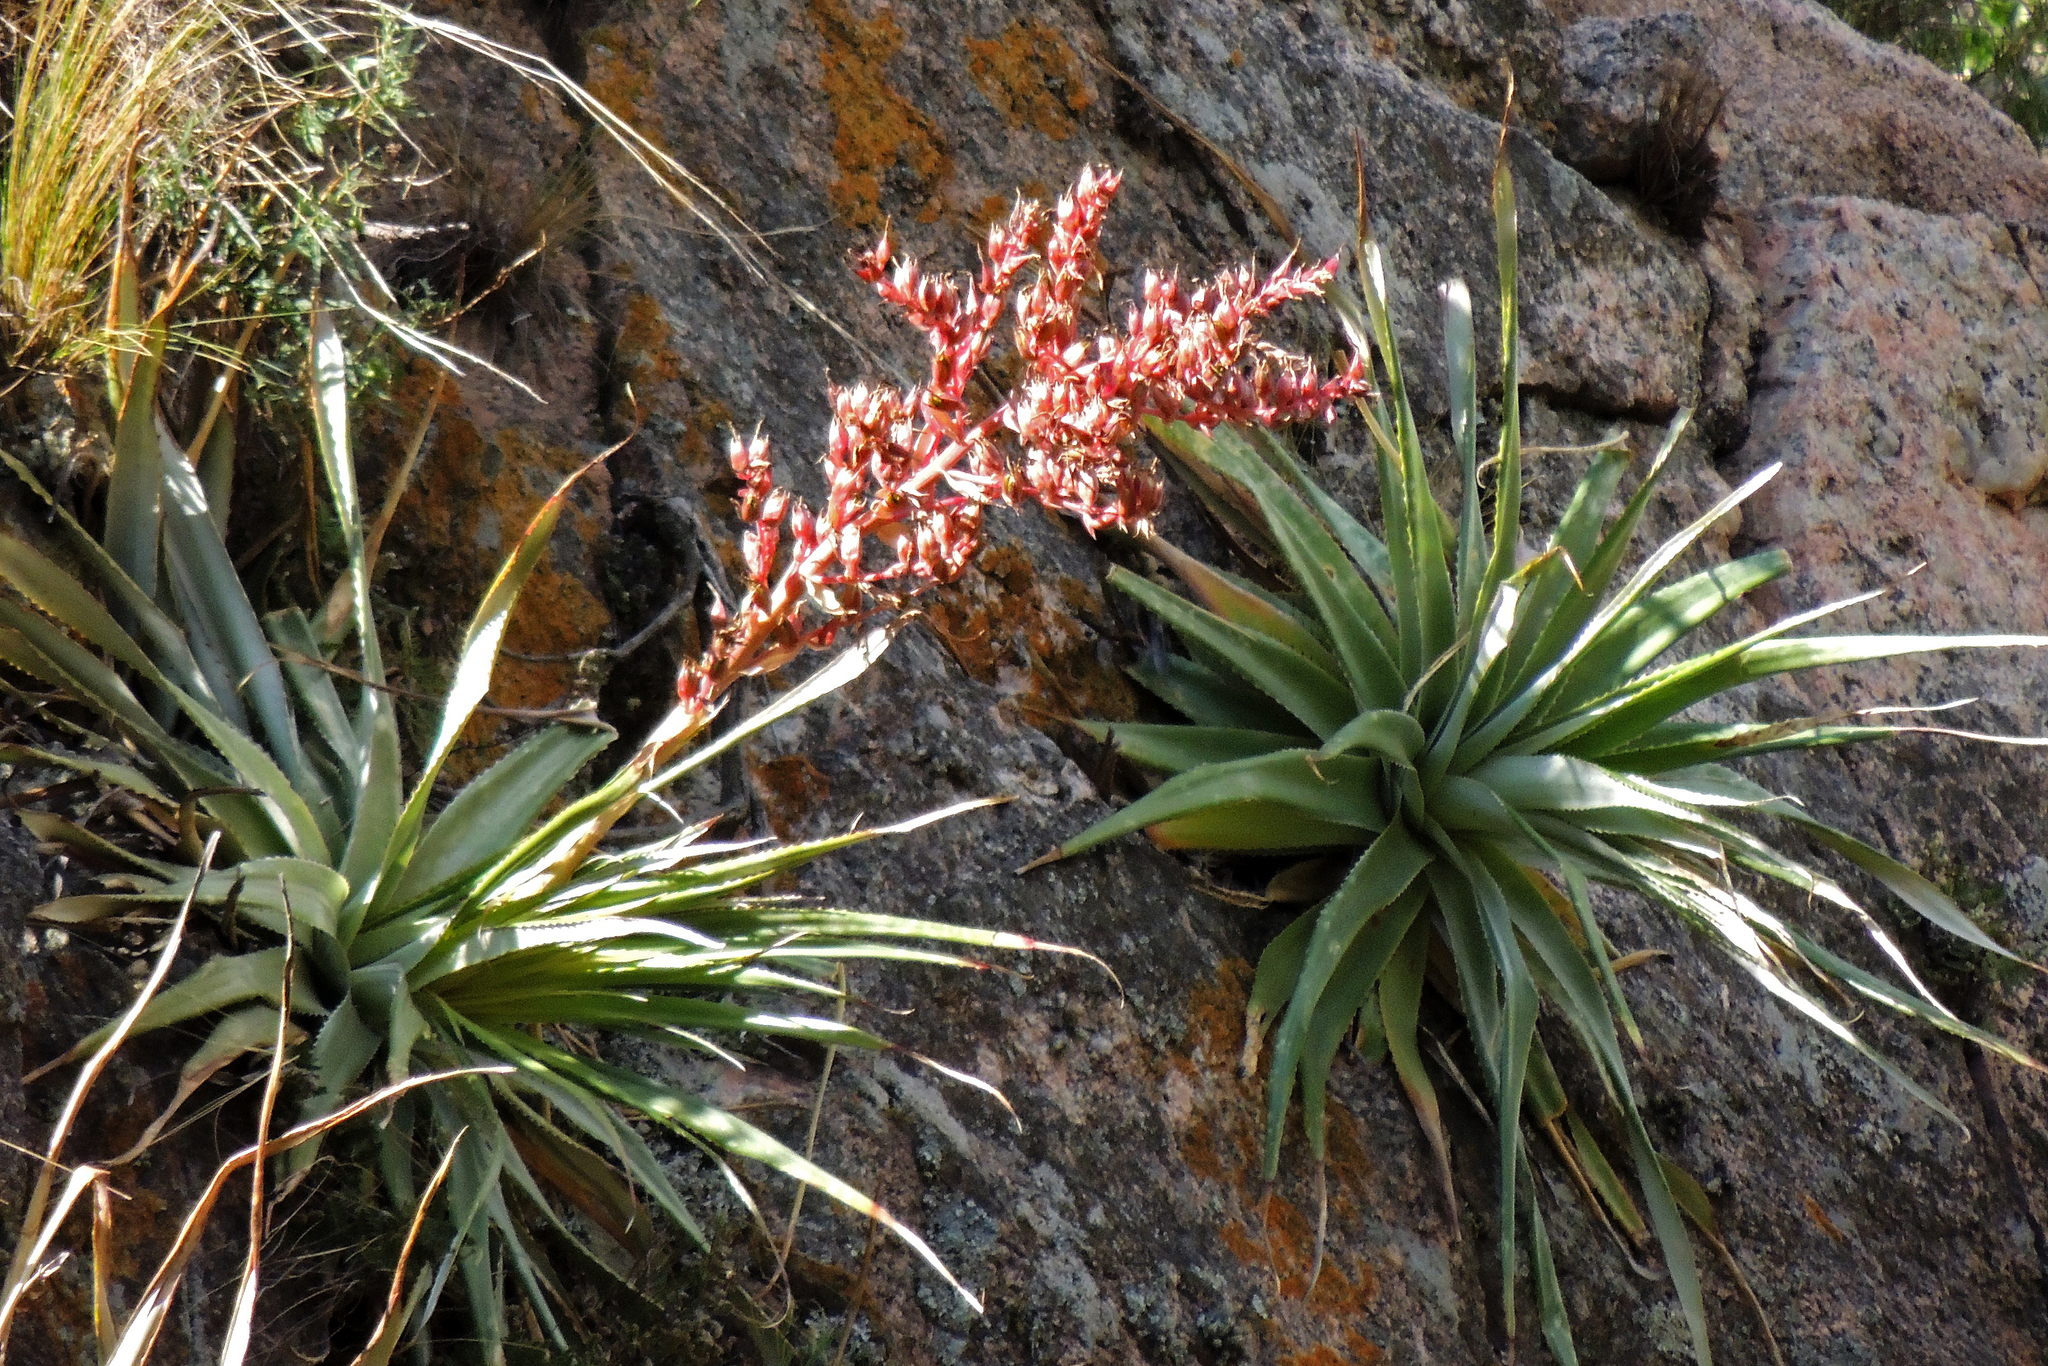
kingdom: Plantae
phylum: Tracheophyta
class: Liliopsida
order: Poales
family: Bromeliaceae
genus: Puya
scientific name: Puya spathacea
